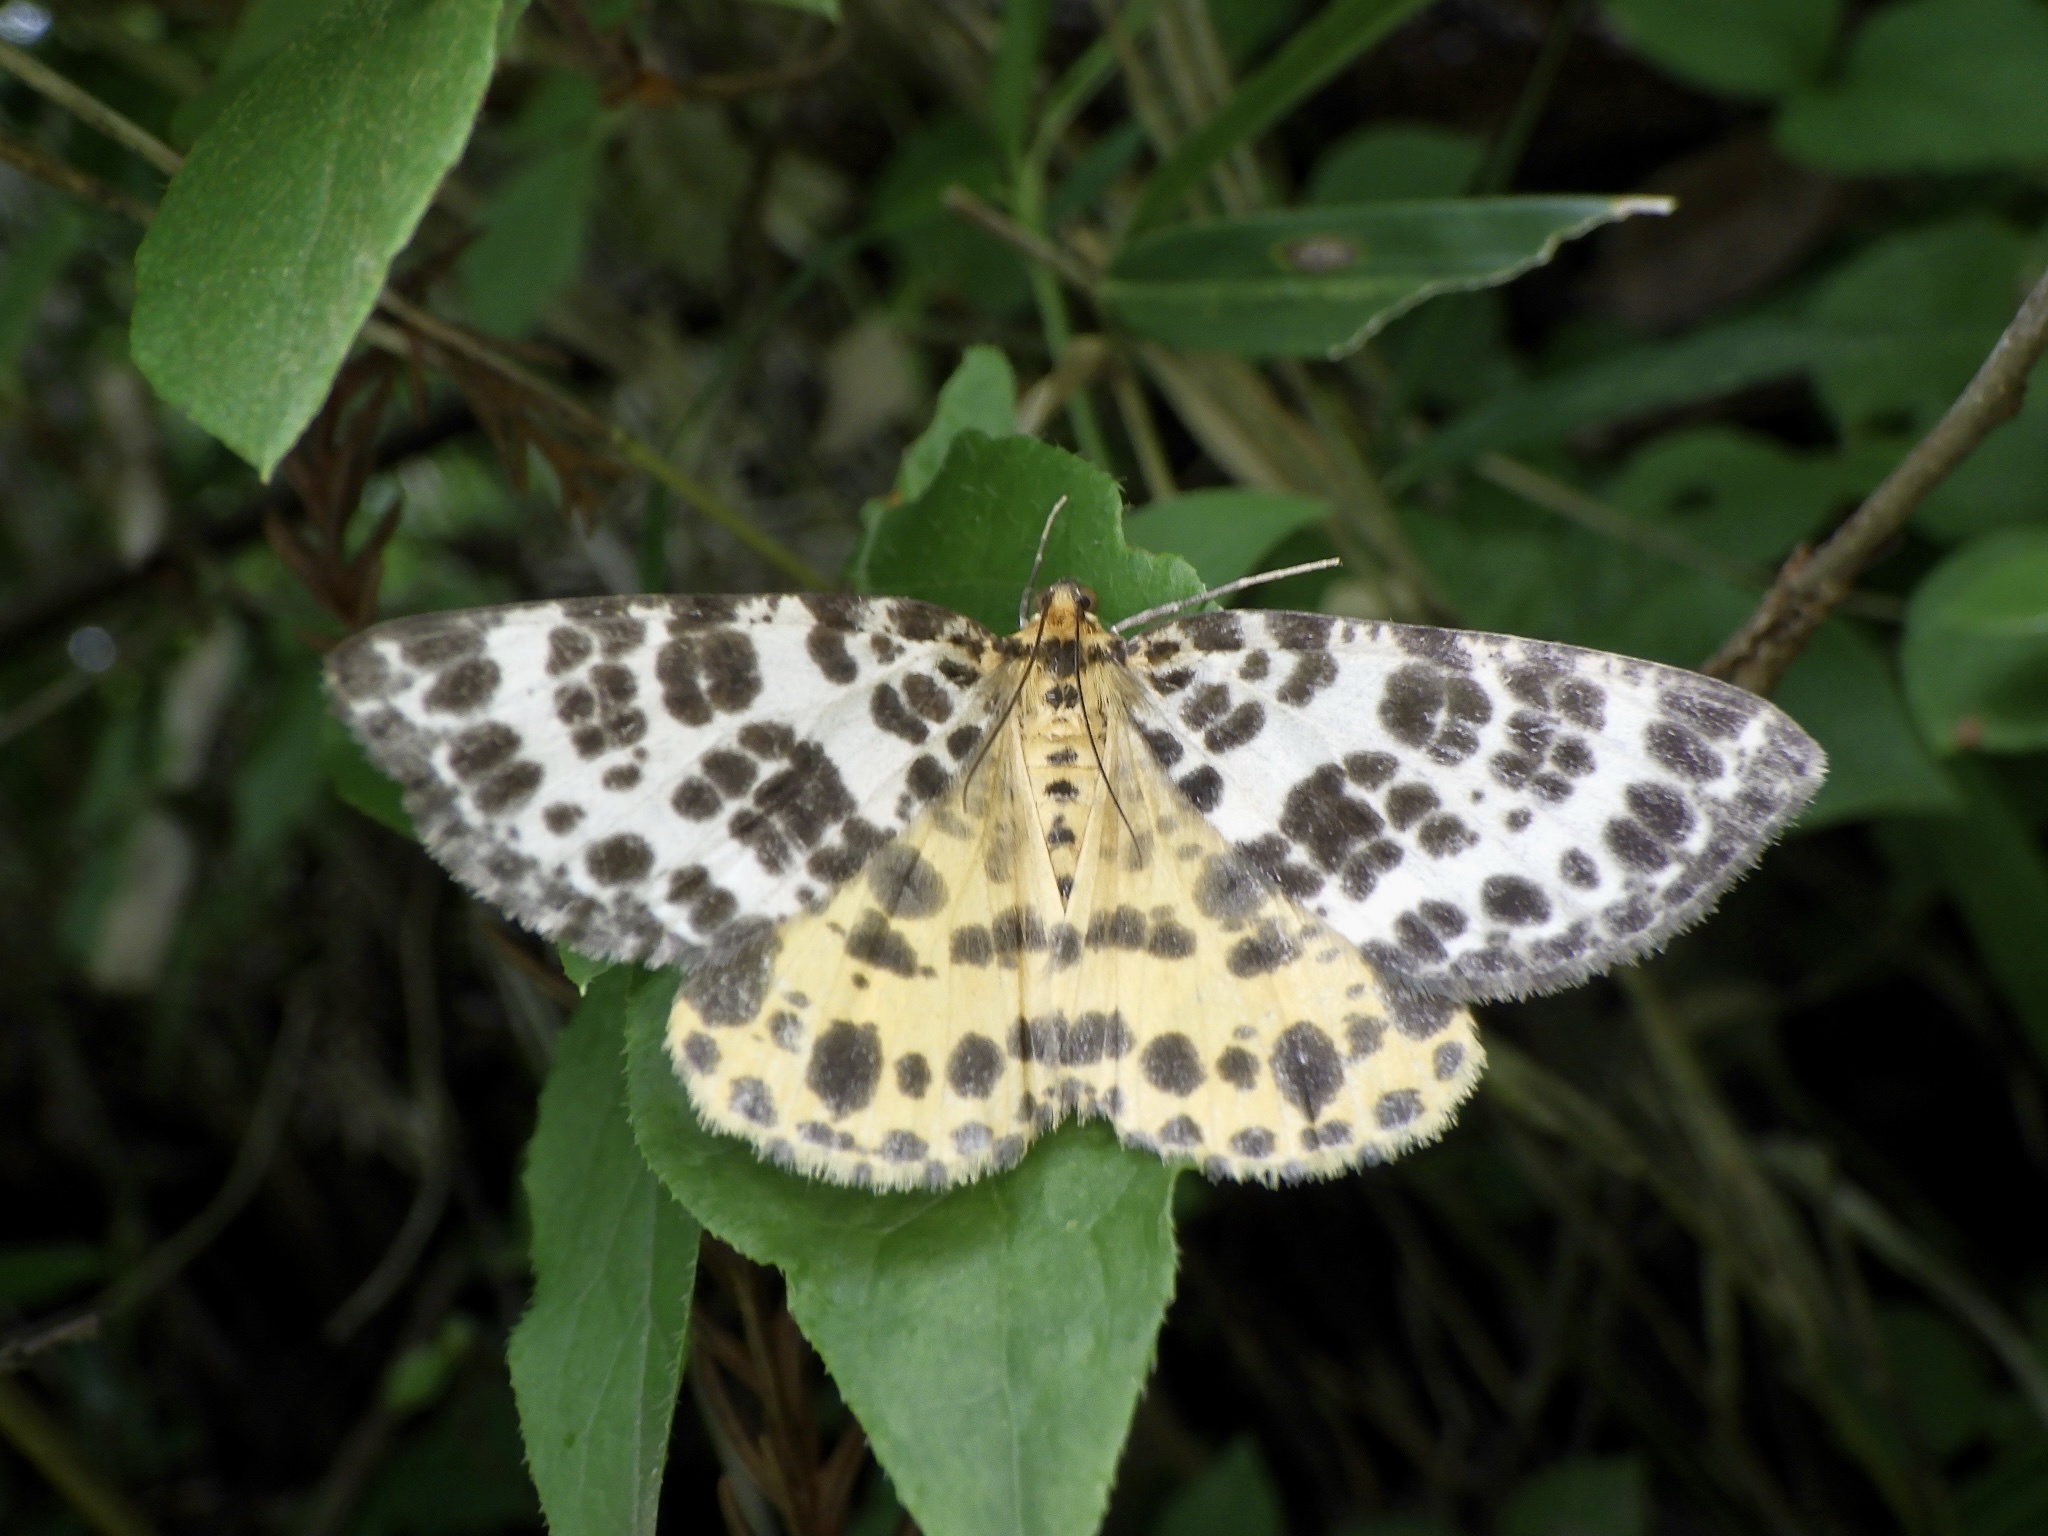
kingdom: Animalia
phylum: Arthropoda
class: Insecta
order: Lepidoptera
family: Geometridae
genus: Arichanna
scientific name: Arichanna melanaria
